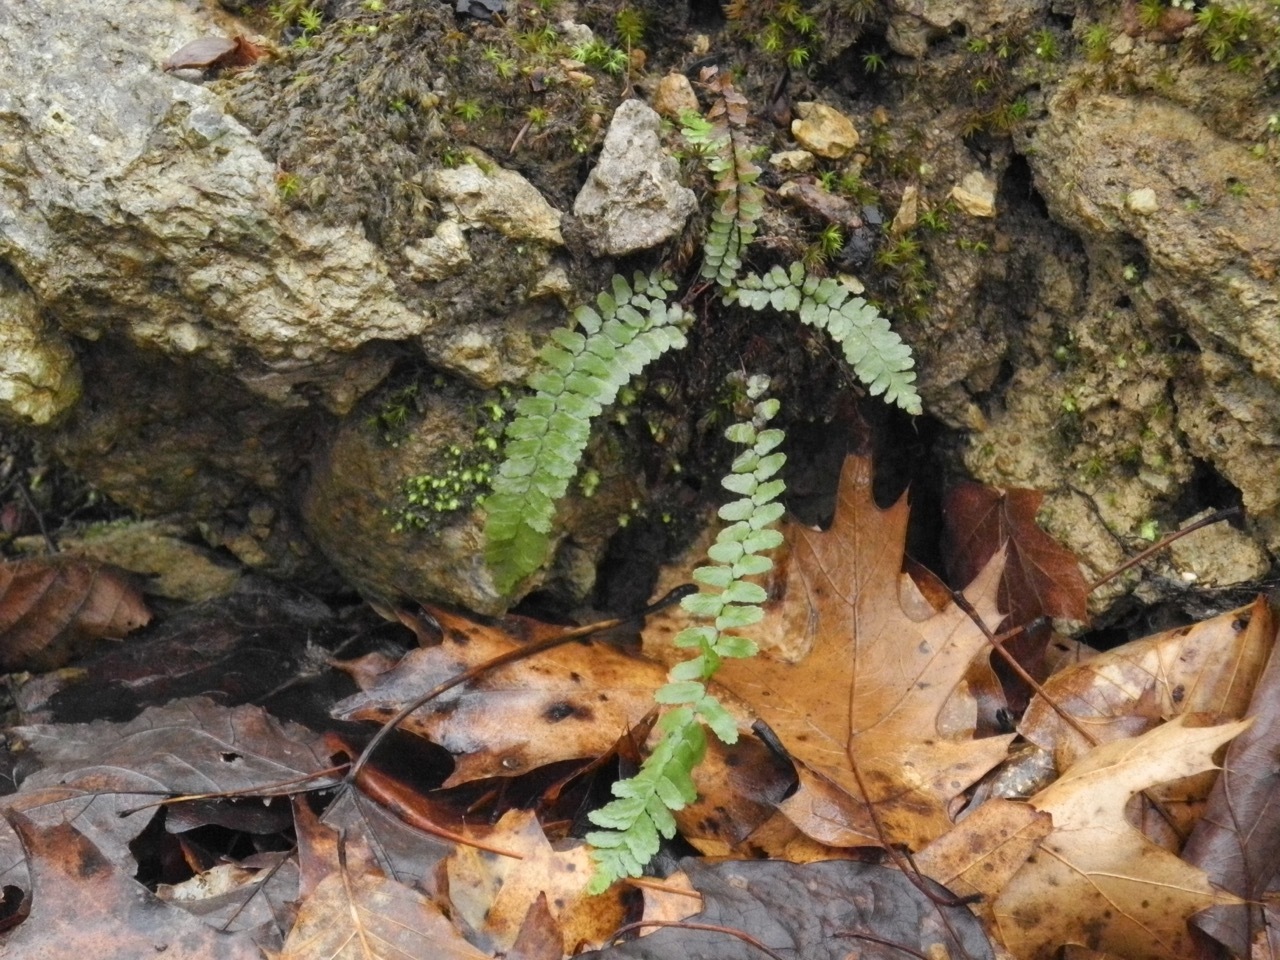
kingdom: Plantae
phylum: Tracheophyta
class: Polypodiopsida
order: Polypodiales
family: Aspleniaceae
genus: Asplenium
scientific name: Asplenium platyneuron
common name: Ebony spleenwort
